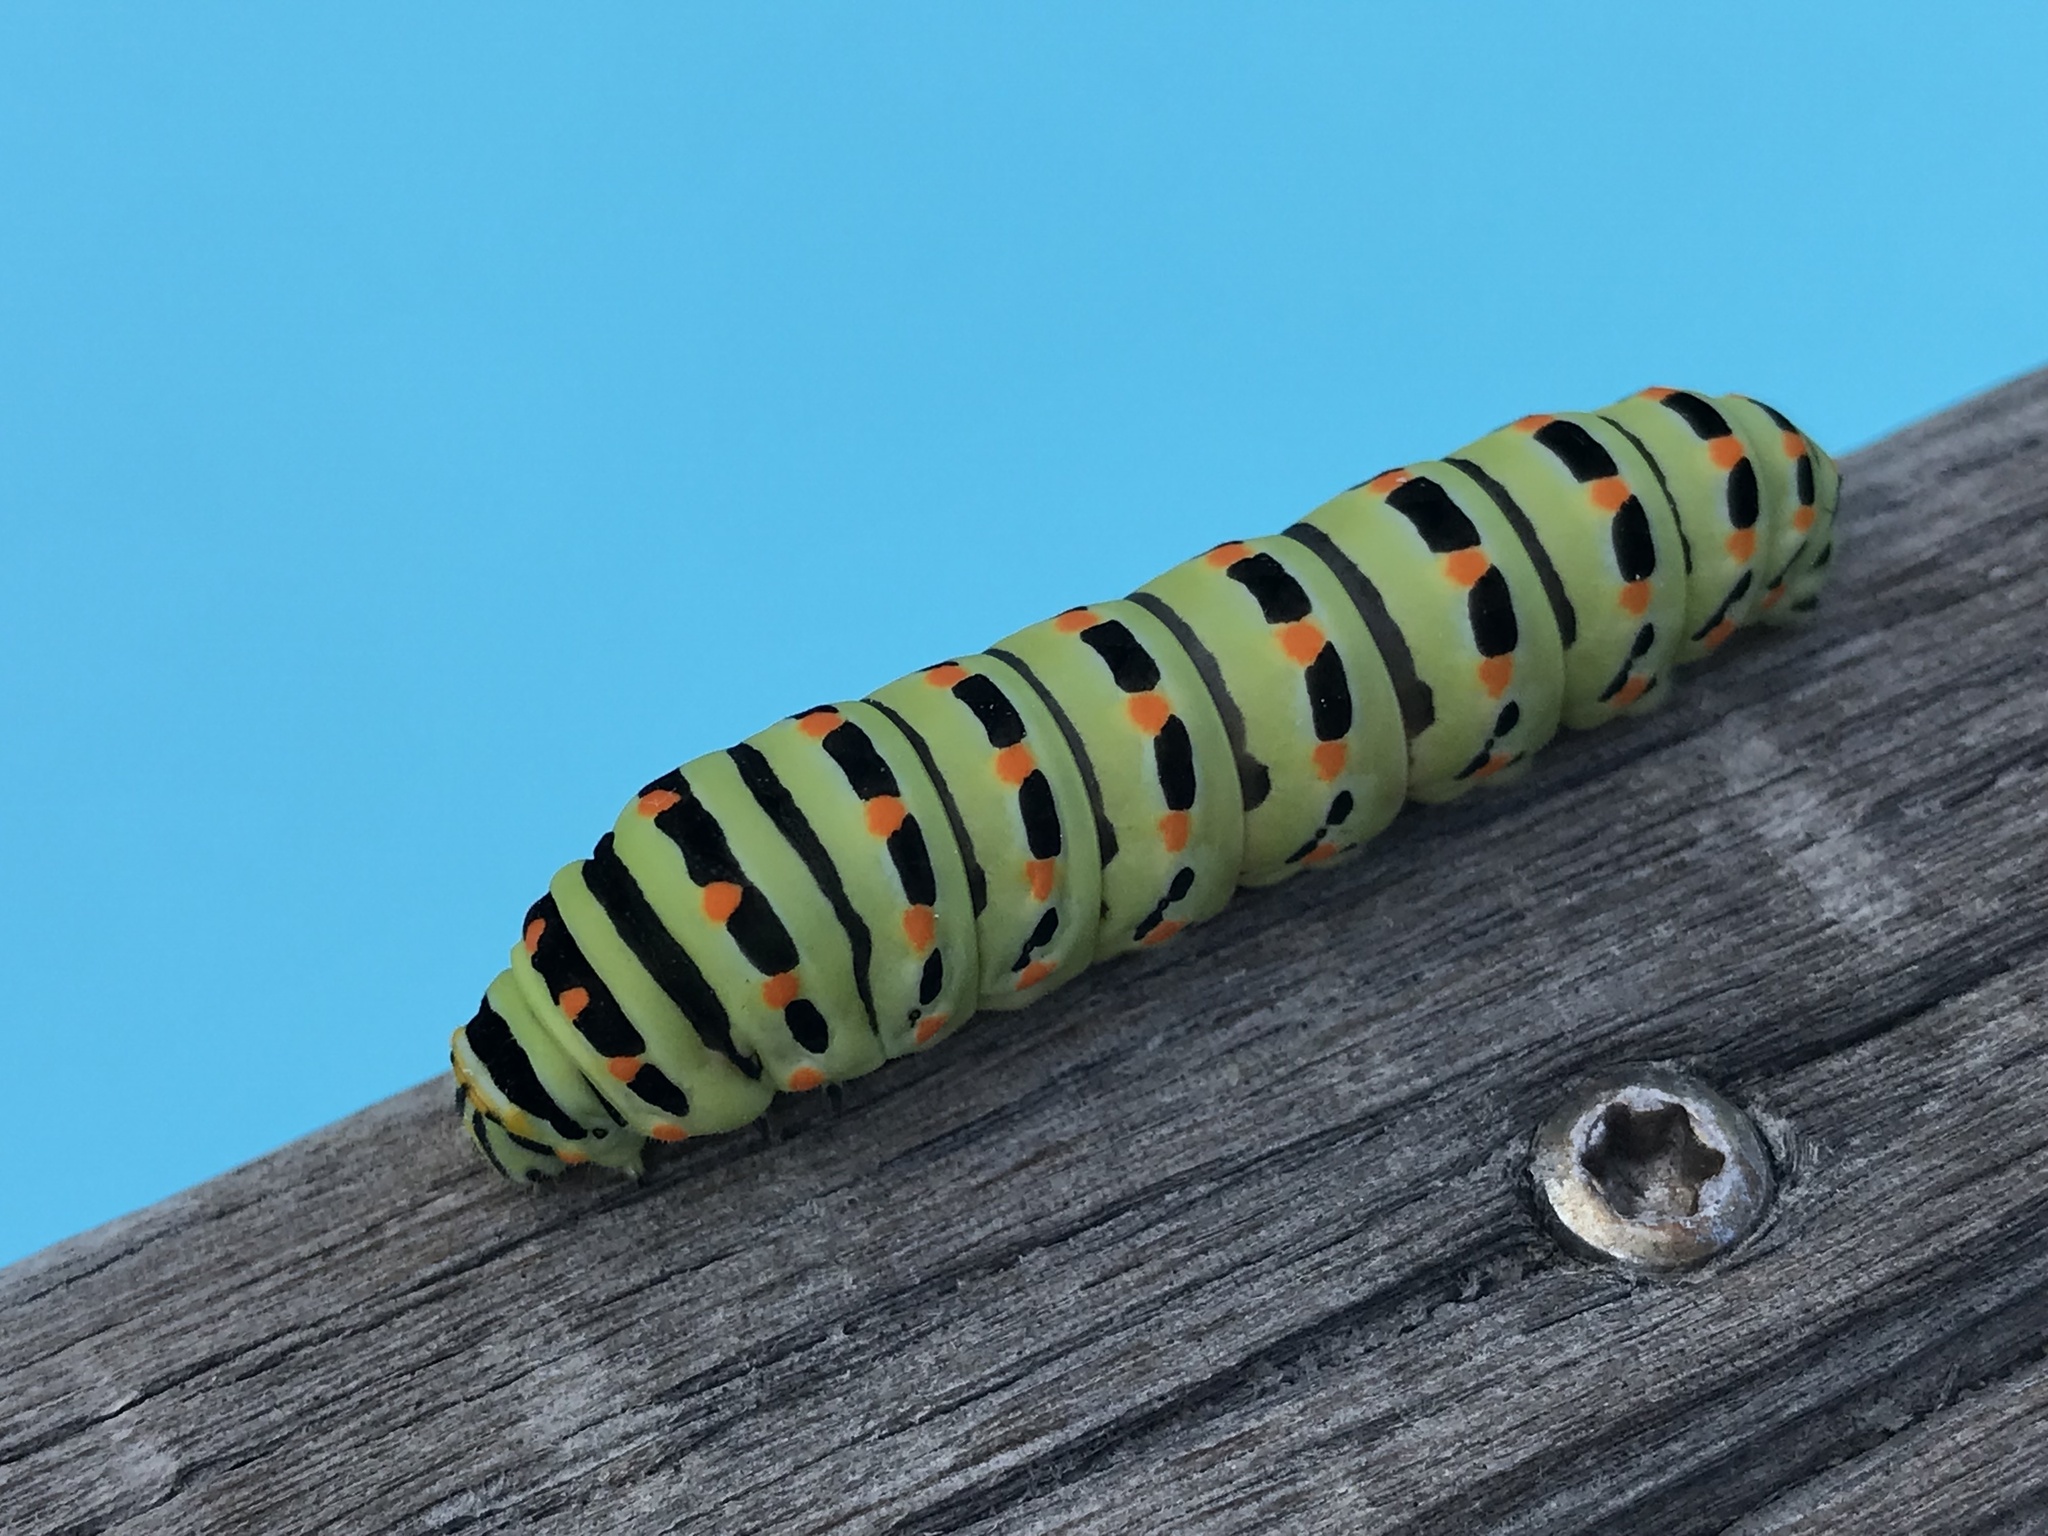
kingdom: Animalia
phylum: Arthropoda
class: Insecta
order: Lepidoptera
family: Papilionidae
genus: Papilio
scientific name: Papilio machaon
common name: Swallowtail
